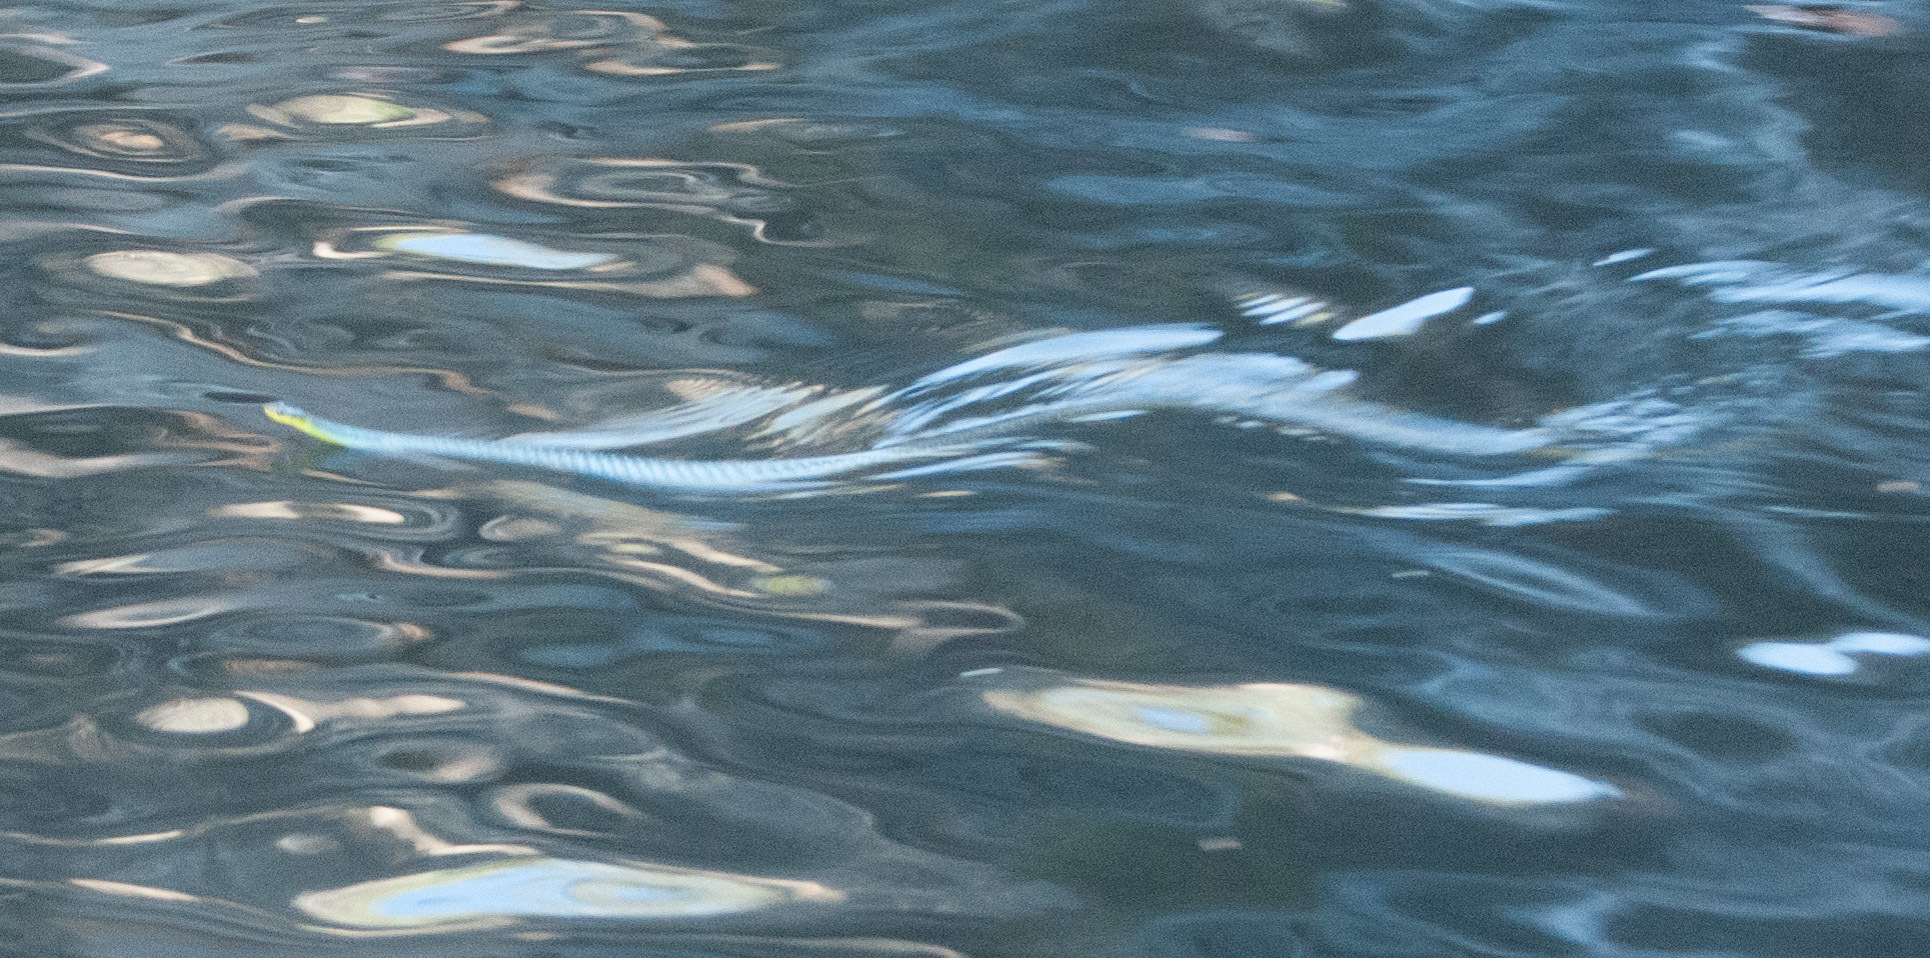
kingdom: Animalia
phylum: Chordata
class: Squamata
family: Colubridae
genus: Dendrelaphis
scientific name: Dendrelaphis punctulatus
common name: Common tree snake
